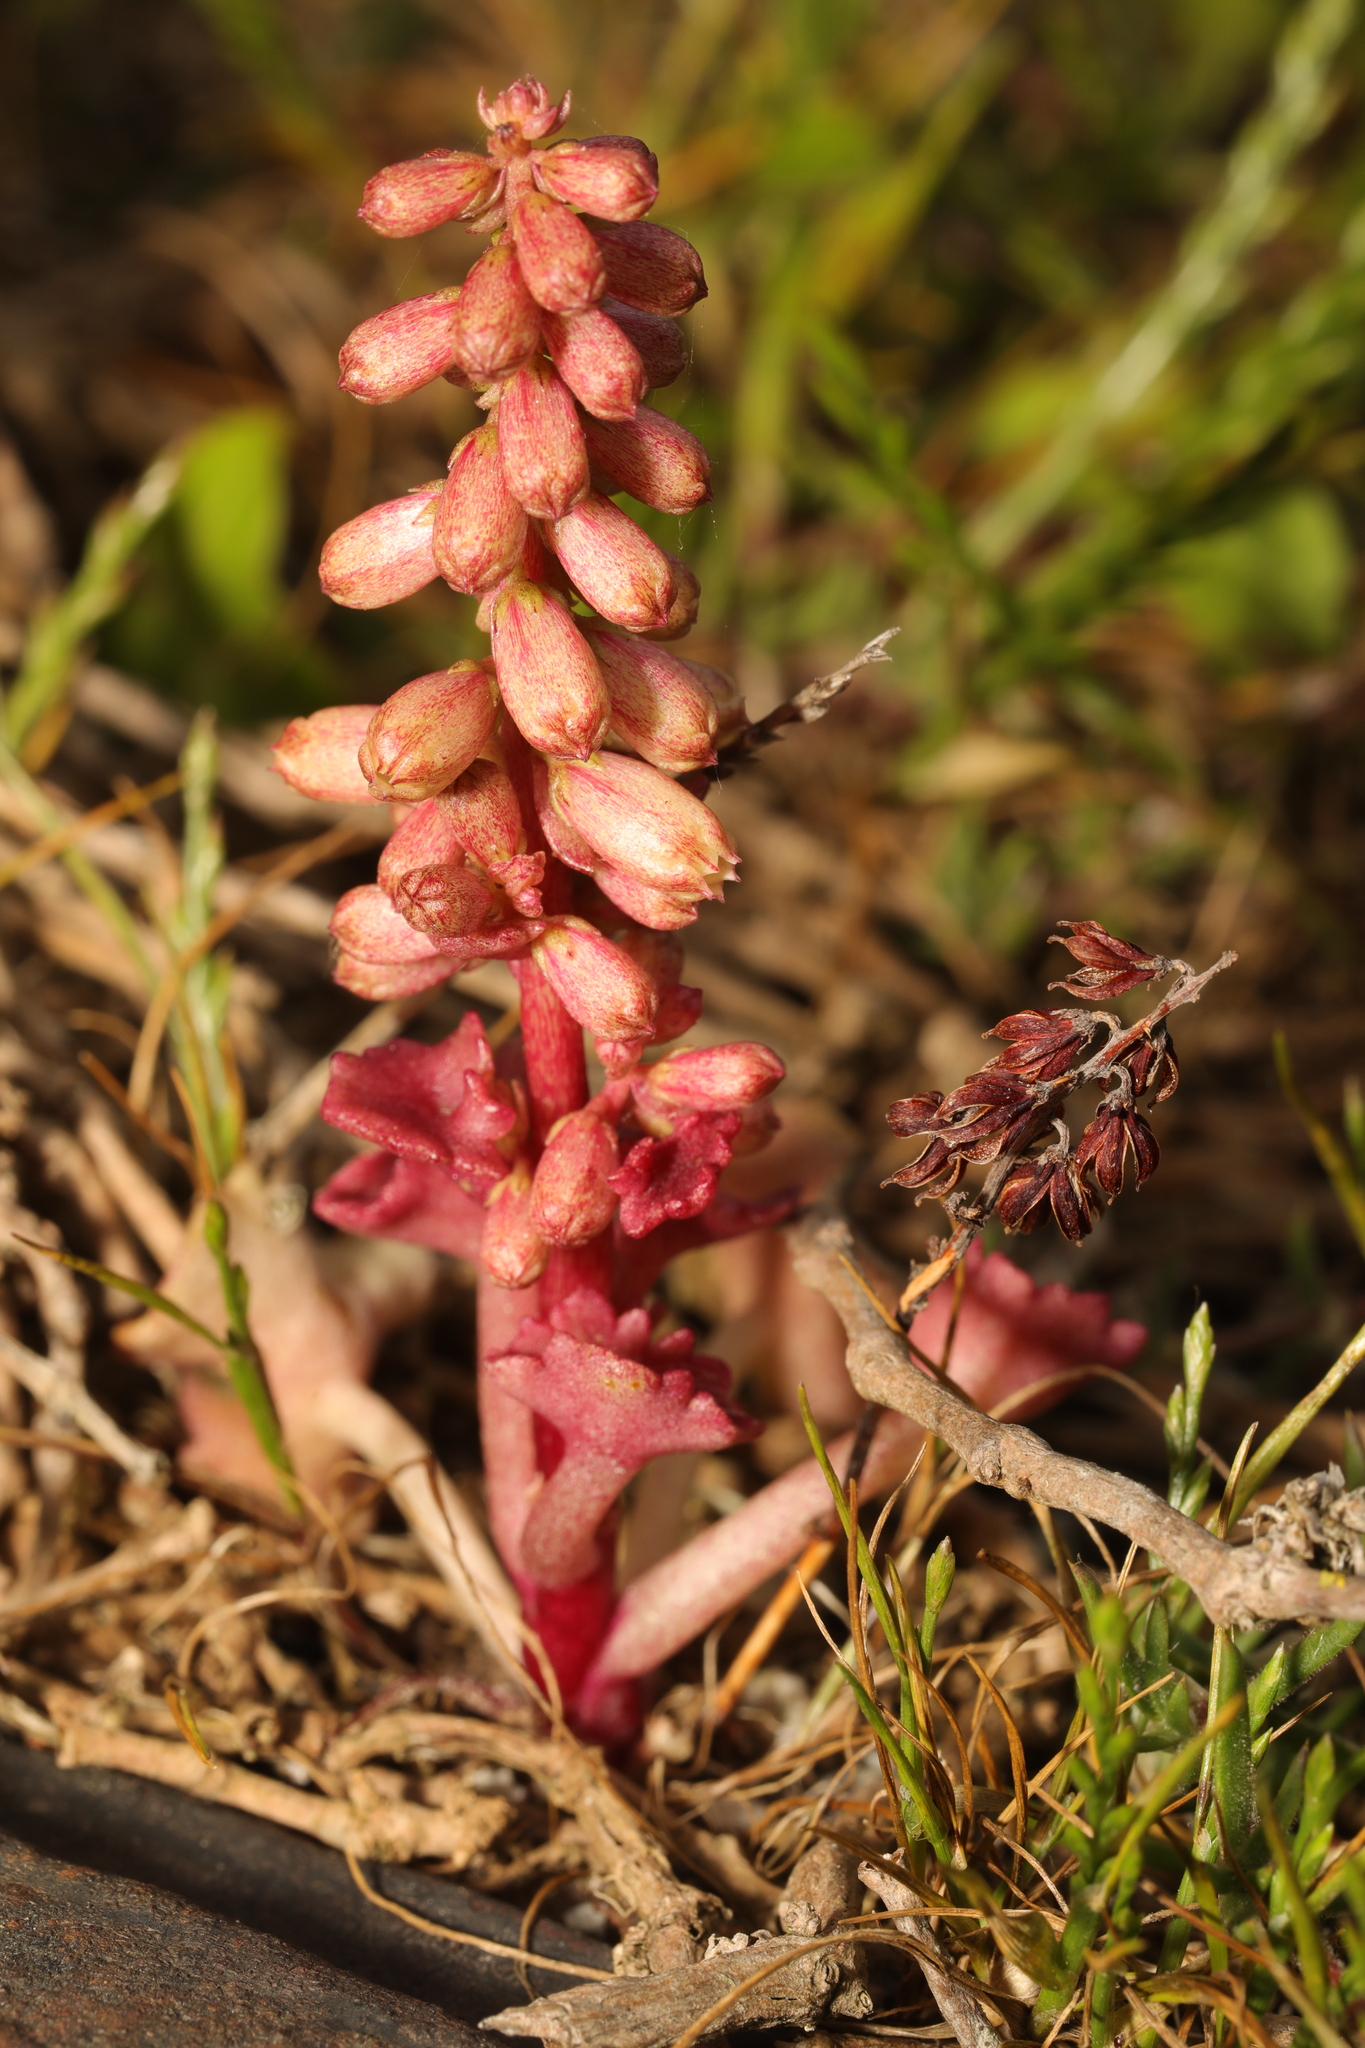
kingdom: Plantae
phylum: Tracheophyta
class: Magnoliopsida
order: Saxifragales
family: Crassulaceae
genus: Umbilicus
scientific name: Umbilicus rupestris
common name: Navelwort
